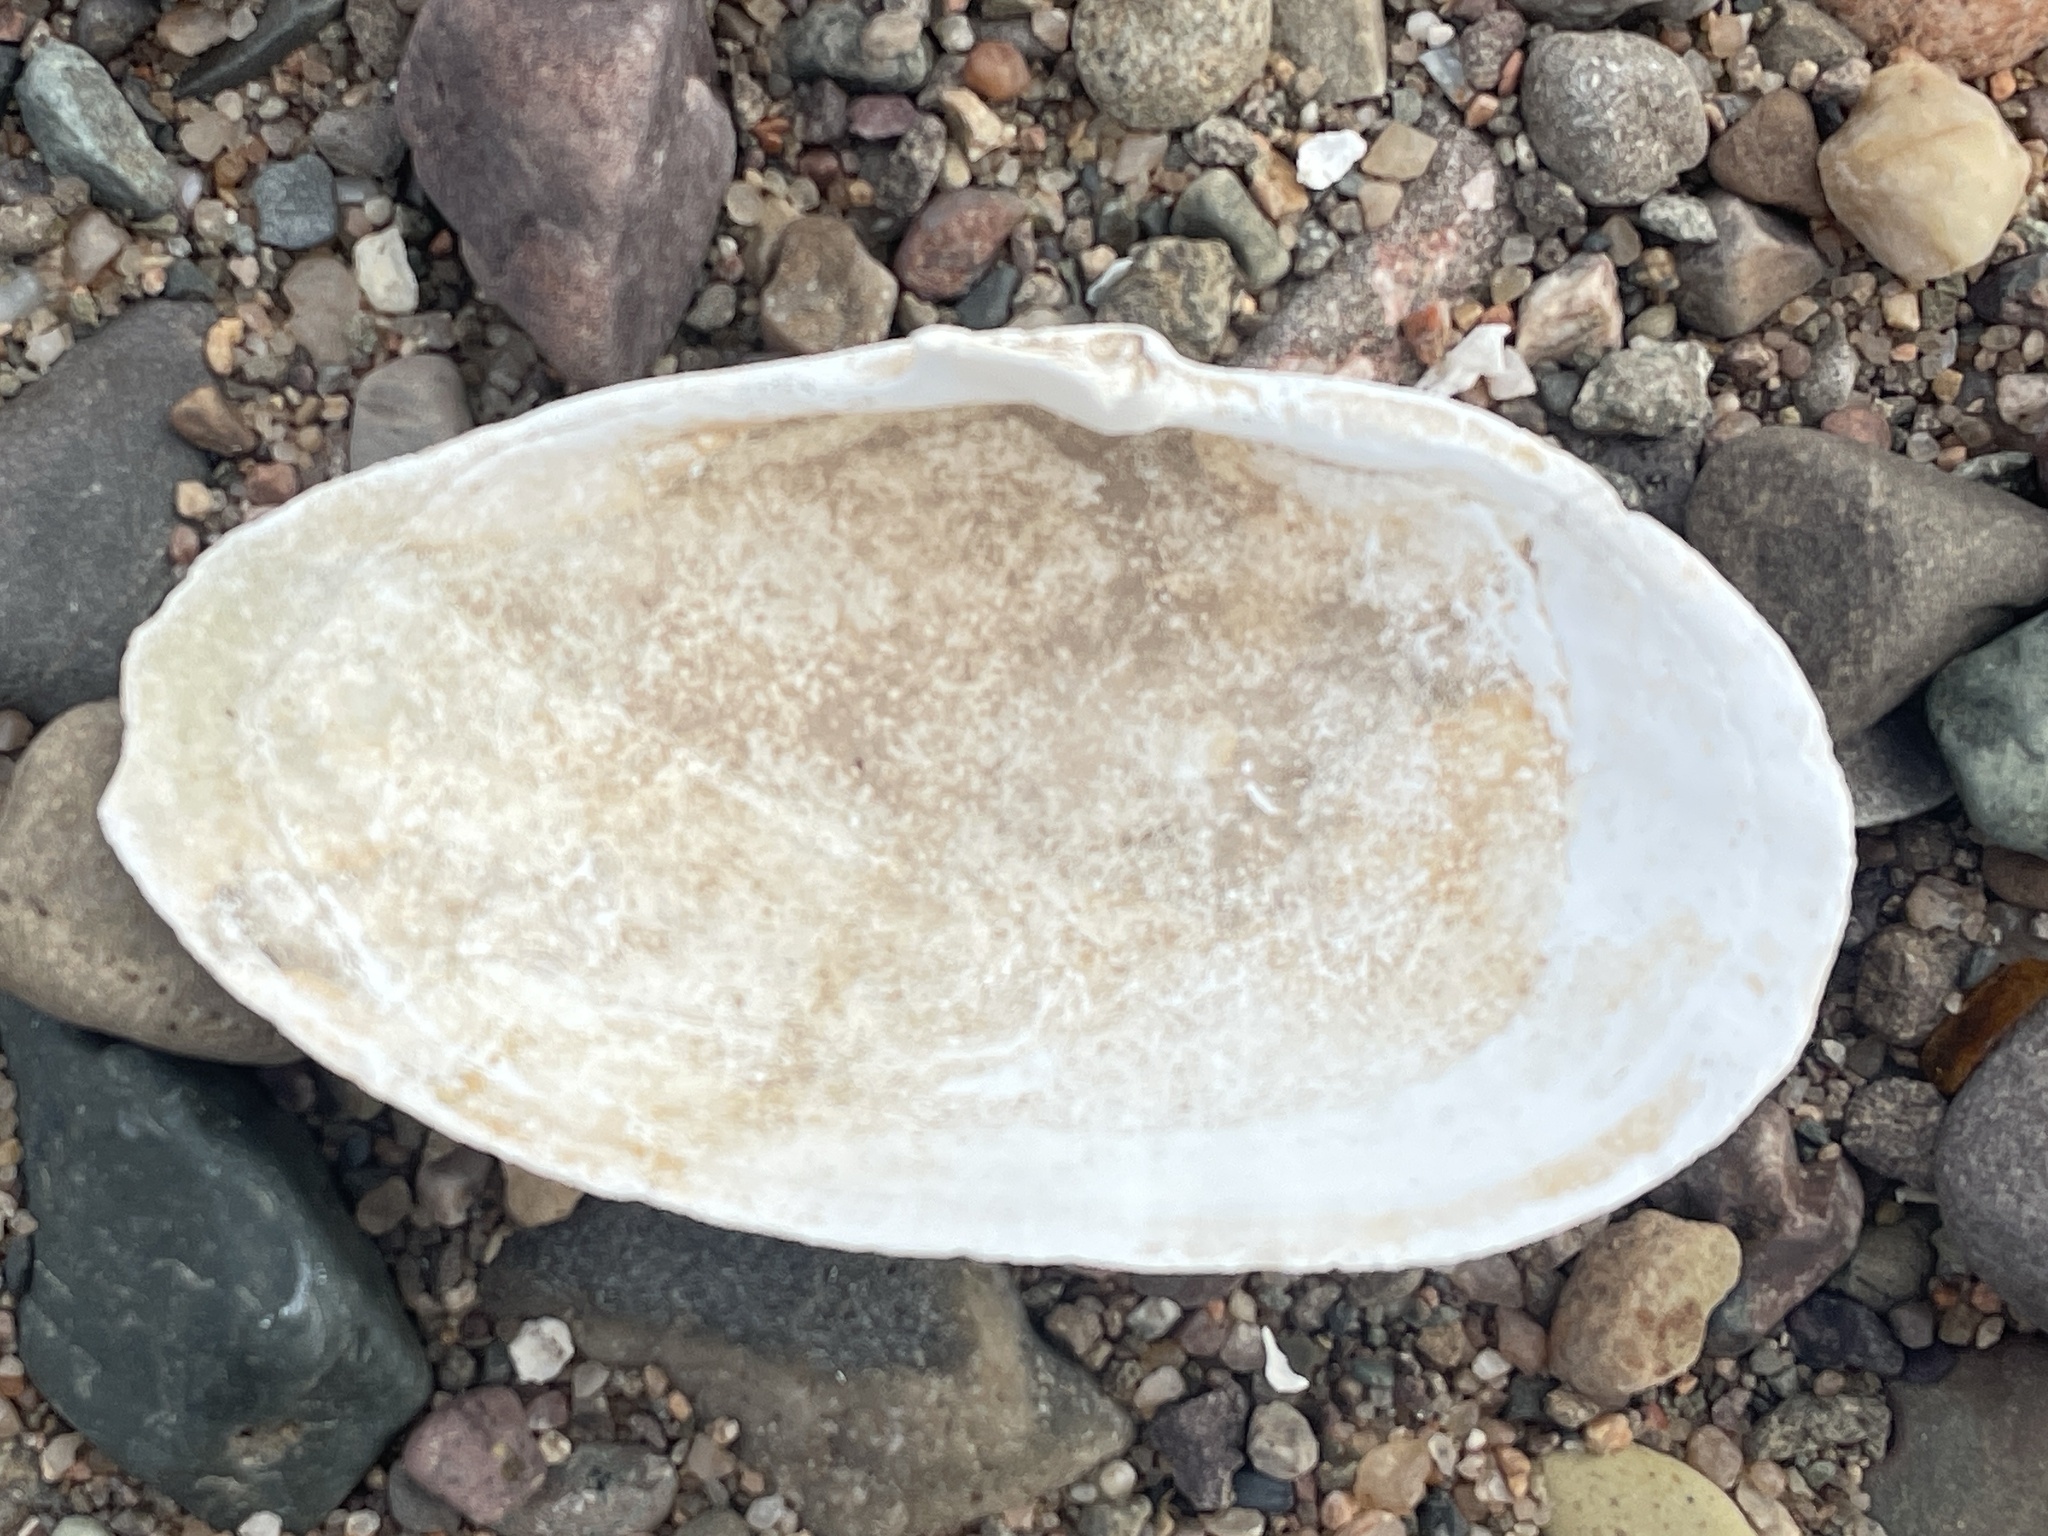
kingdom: Animalia
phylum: Mollusca
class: Bivalvia
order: Myida
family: Myidae
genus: Mya
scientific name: Mya arenaria
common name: Soft-shelled clam
